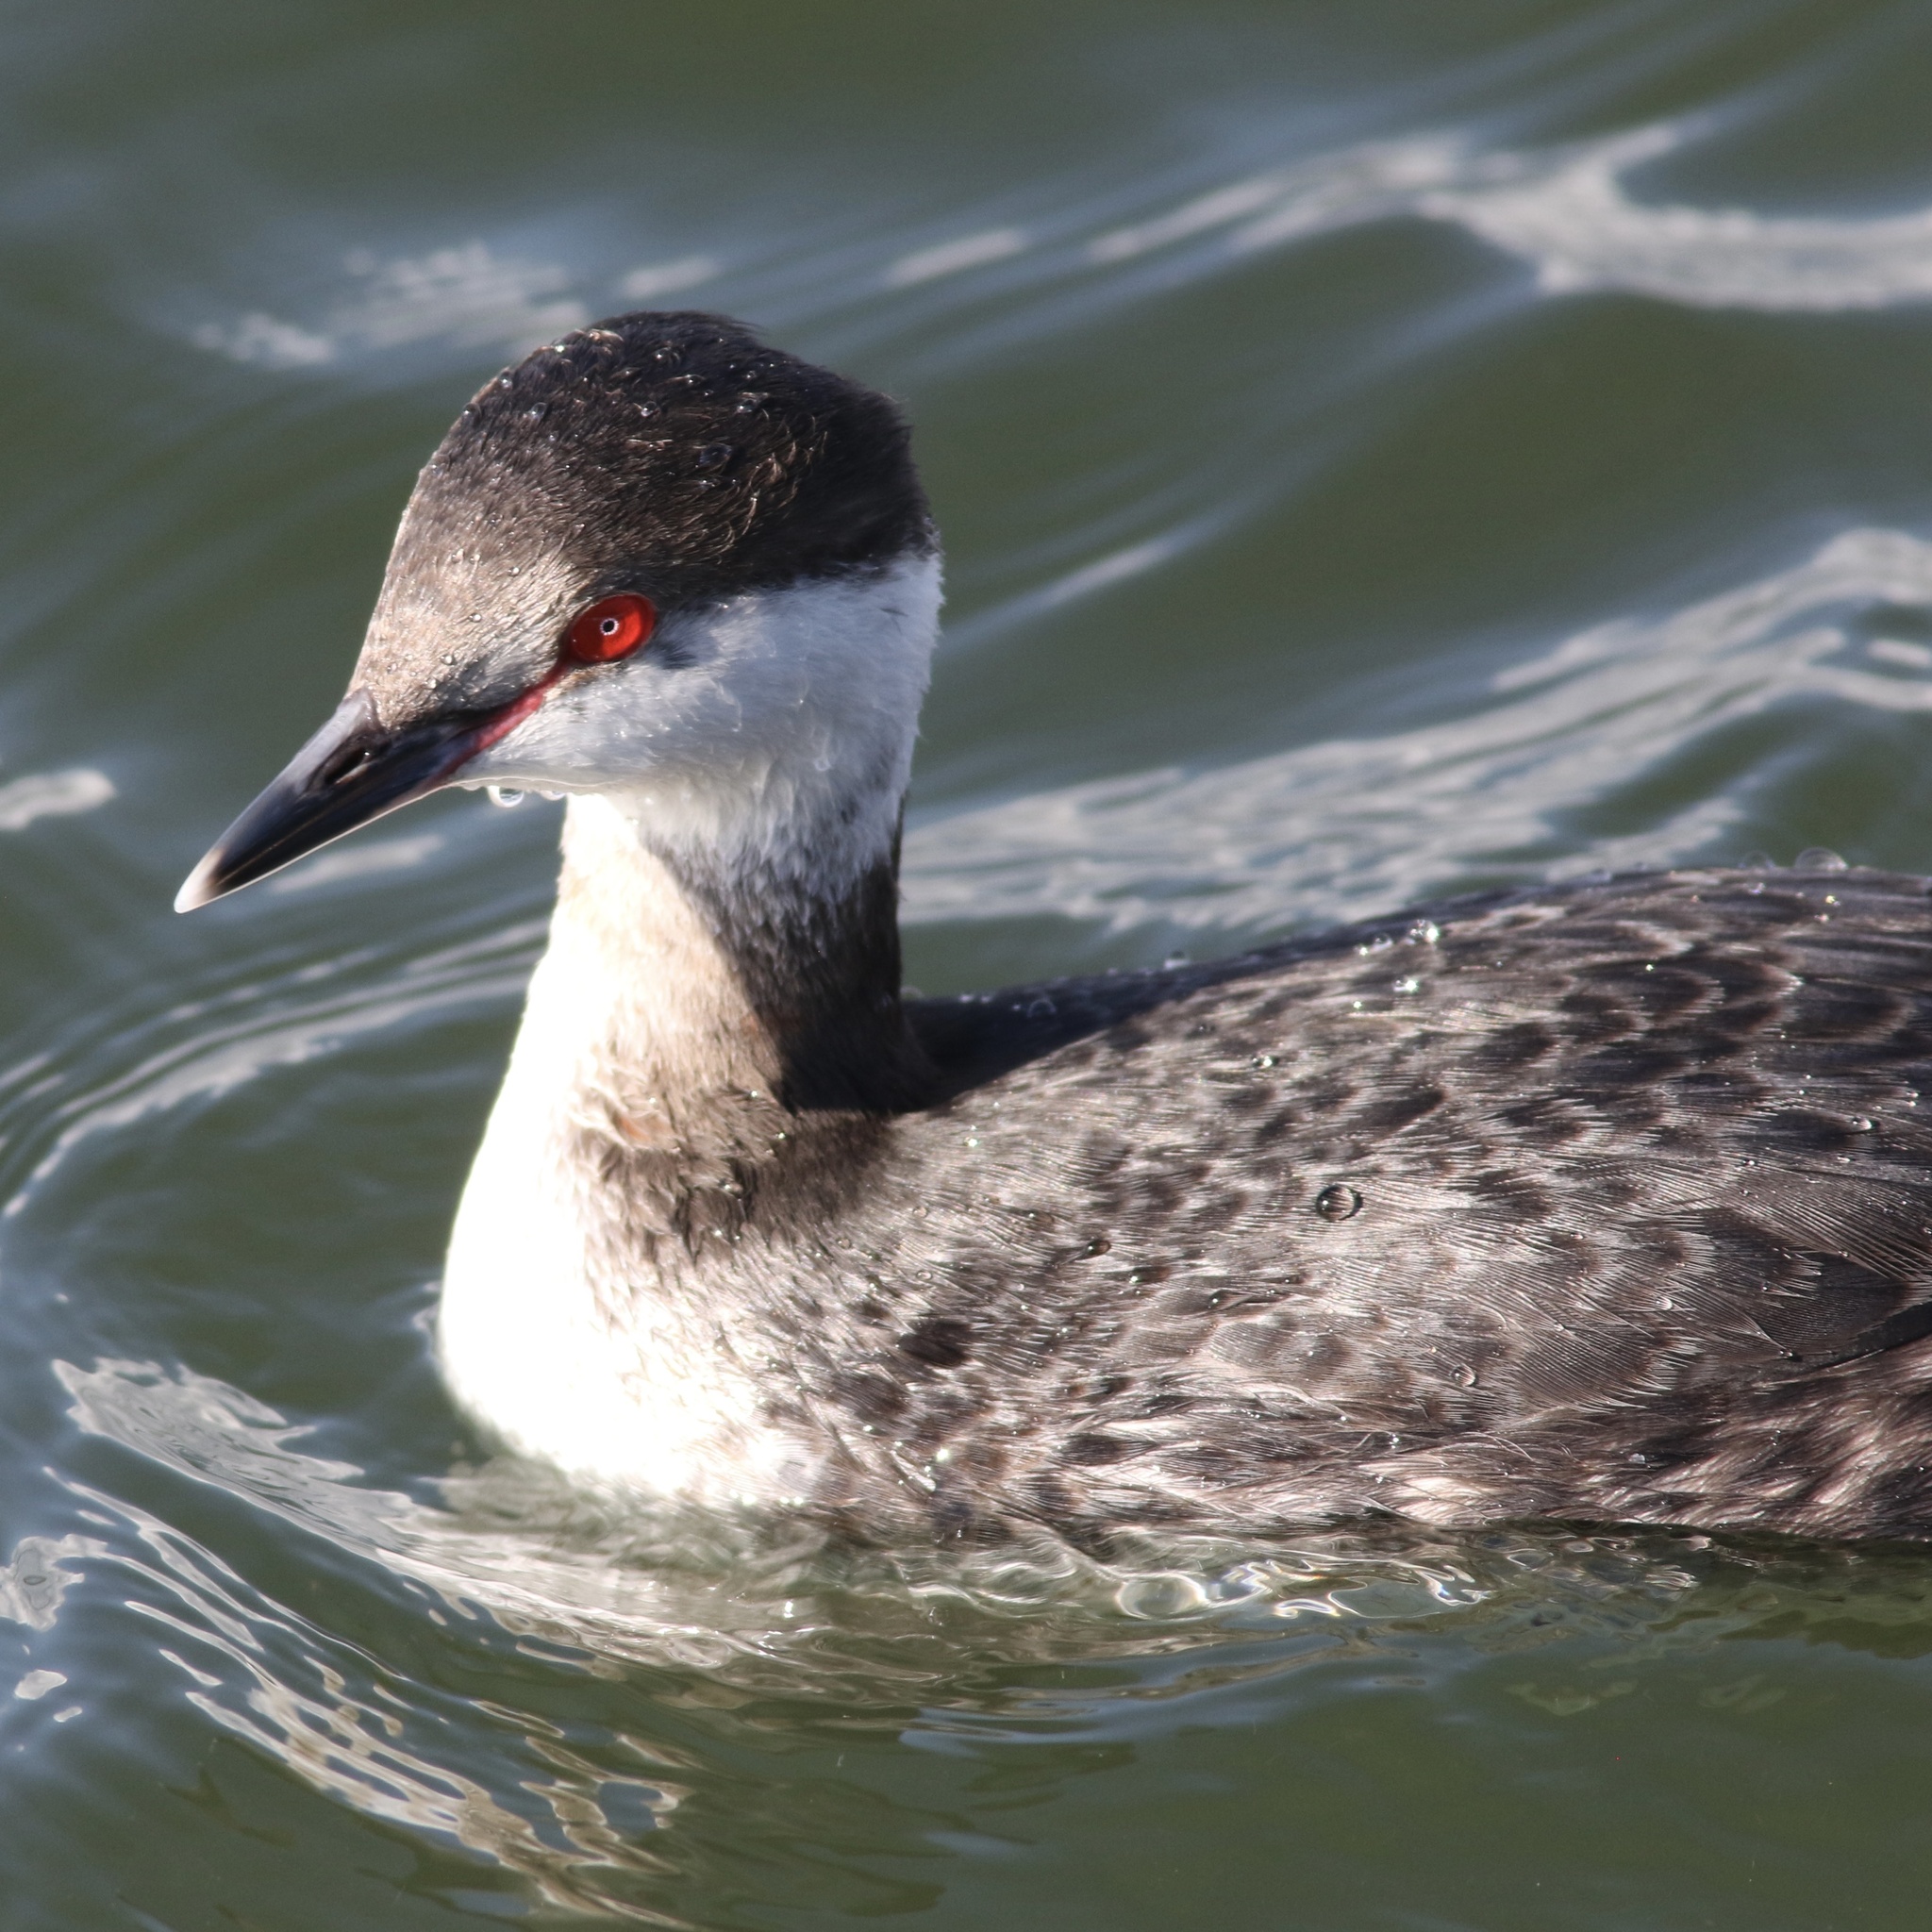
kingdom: Animalia
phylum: Chordata
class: Aves
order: Podicipediformes
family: Podicipedidae
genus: Podiceps
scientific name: Podiceps auritus
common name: Horned grebe
